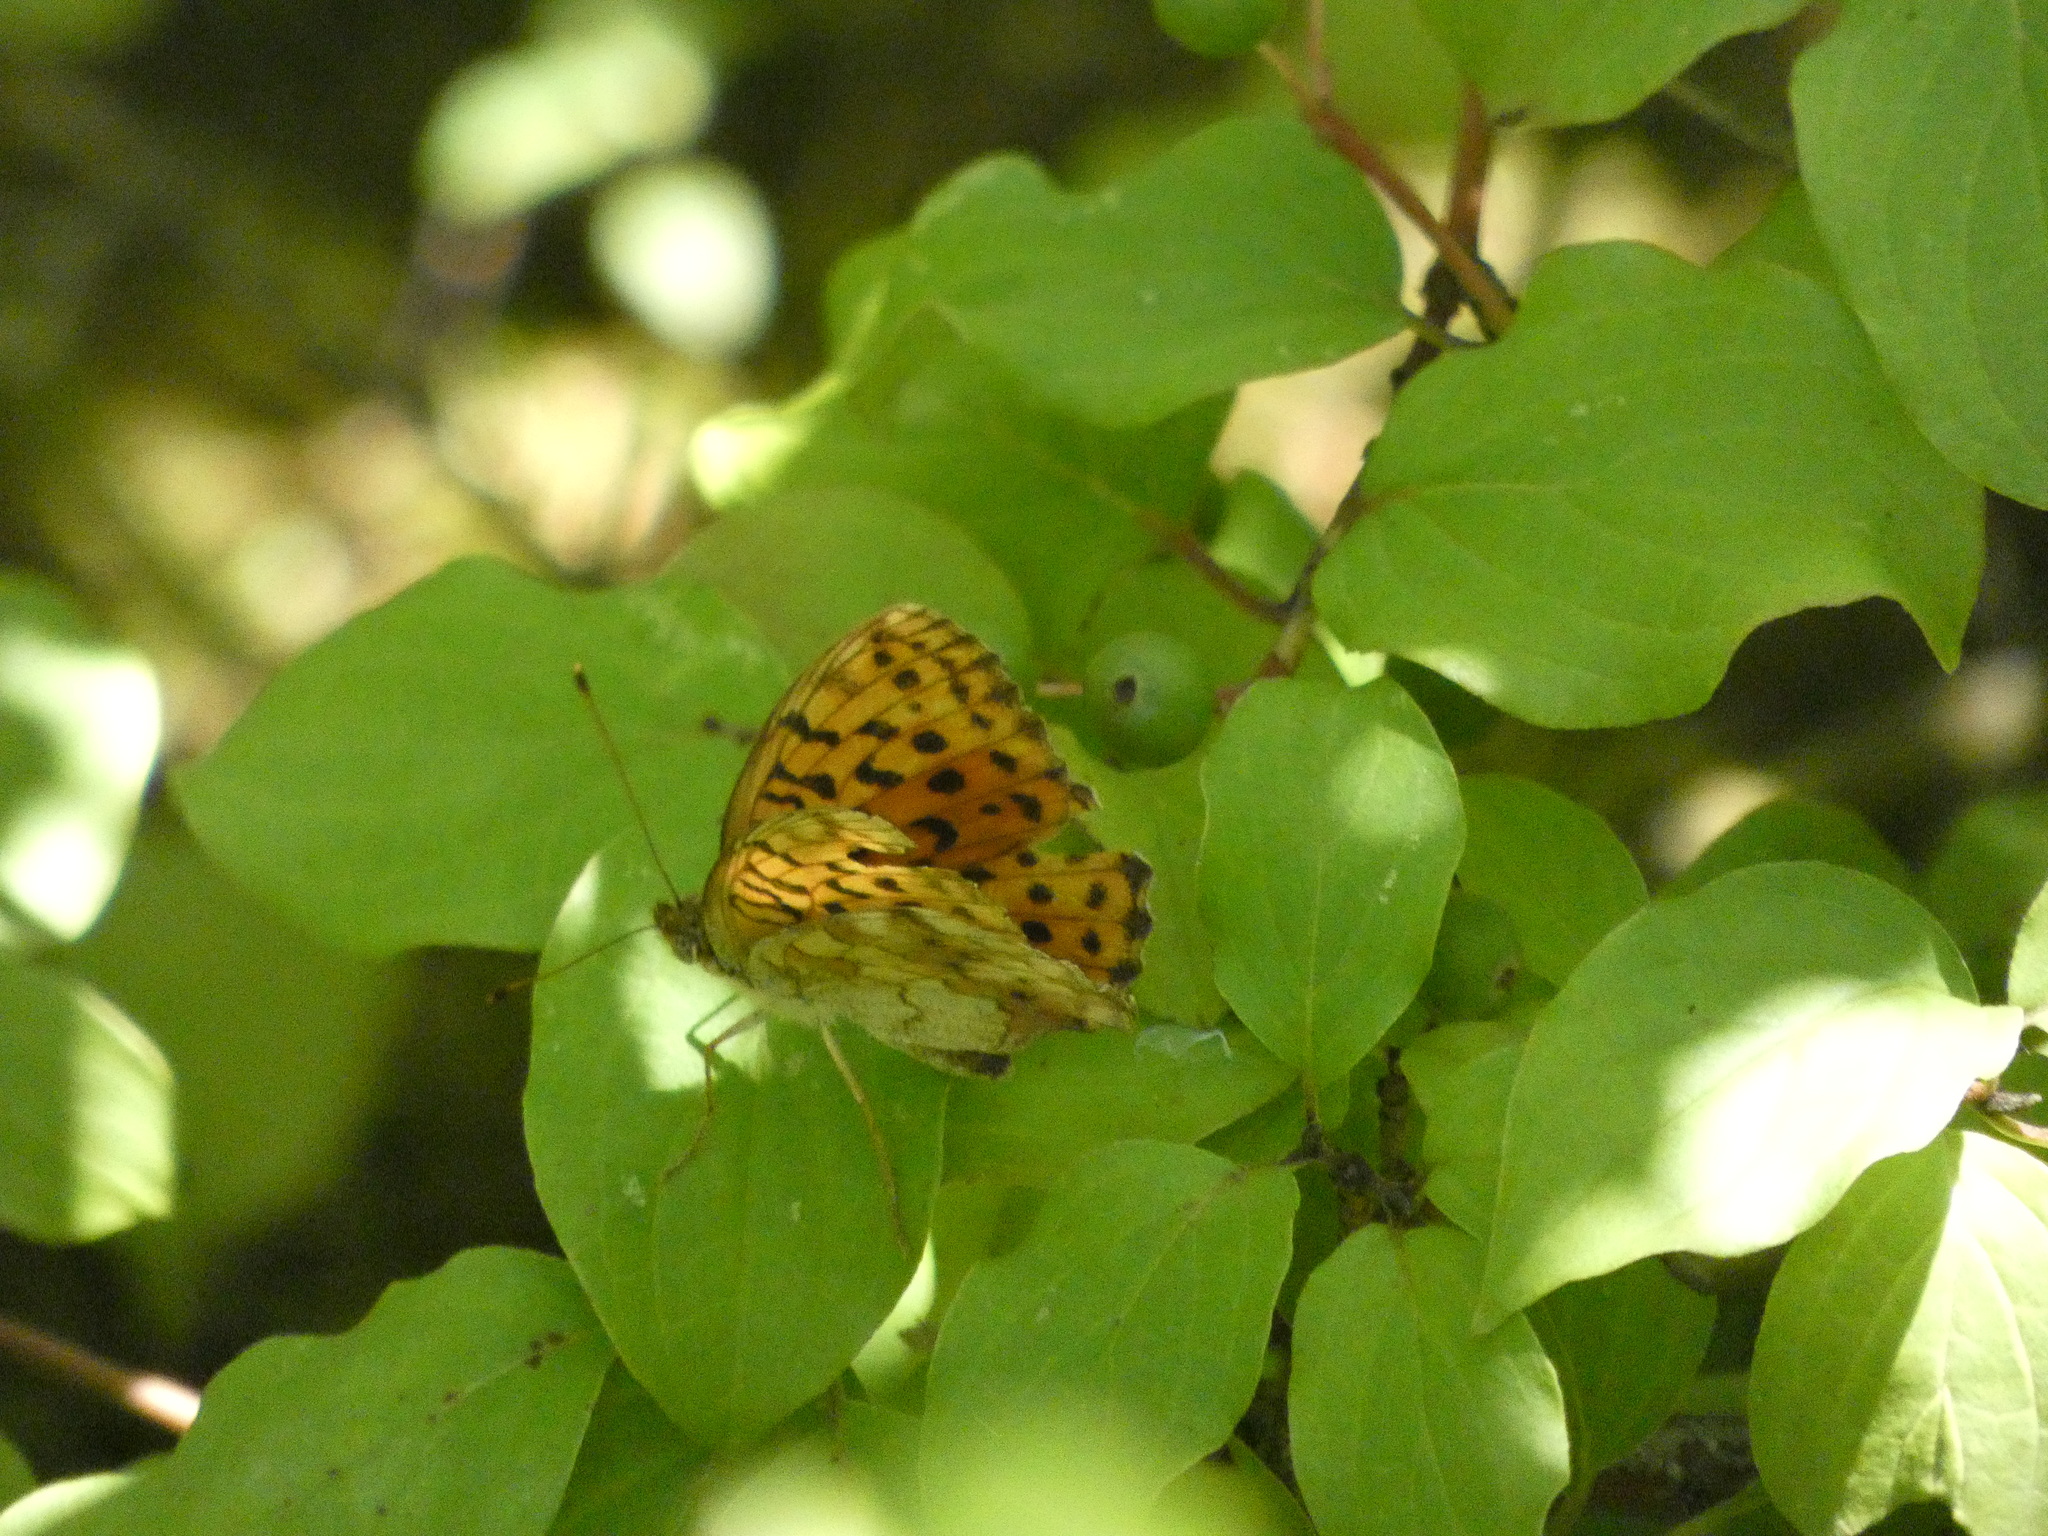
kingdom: Animalia
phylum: Arthropoda
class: Insecta
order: Lepidoptera
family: Nymphalidae
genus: Brenthis
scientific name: Brenthis daphne
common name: Marbled fritillary
